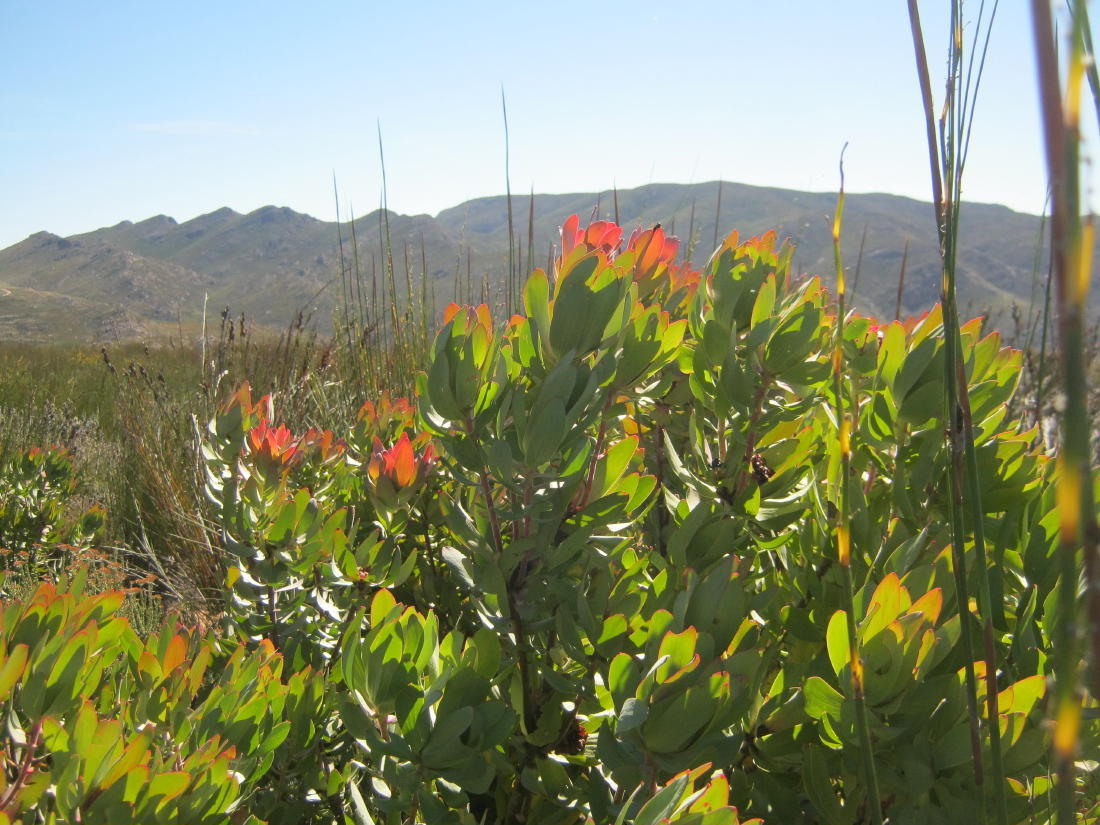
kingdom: Plantae
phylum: Tracheophyta
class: Magnoliopsida
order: Proteales
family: Proteaceae
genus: Leucadendron
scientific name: Leucadendron tinctum
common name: Spicy conebush
